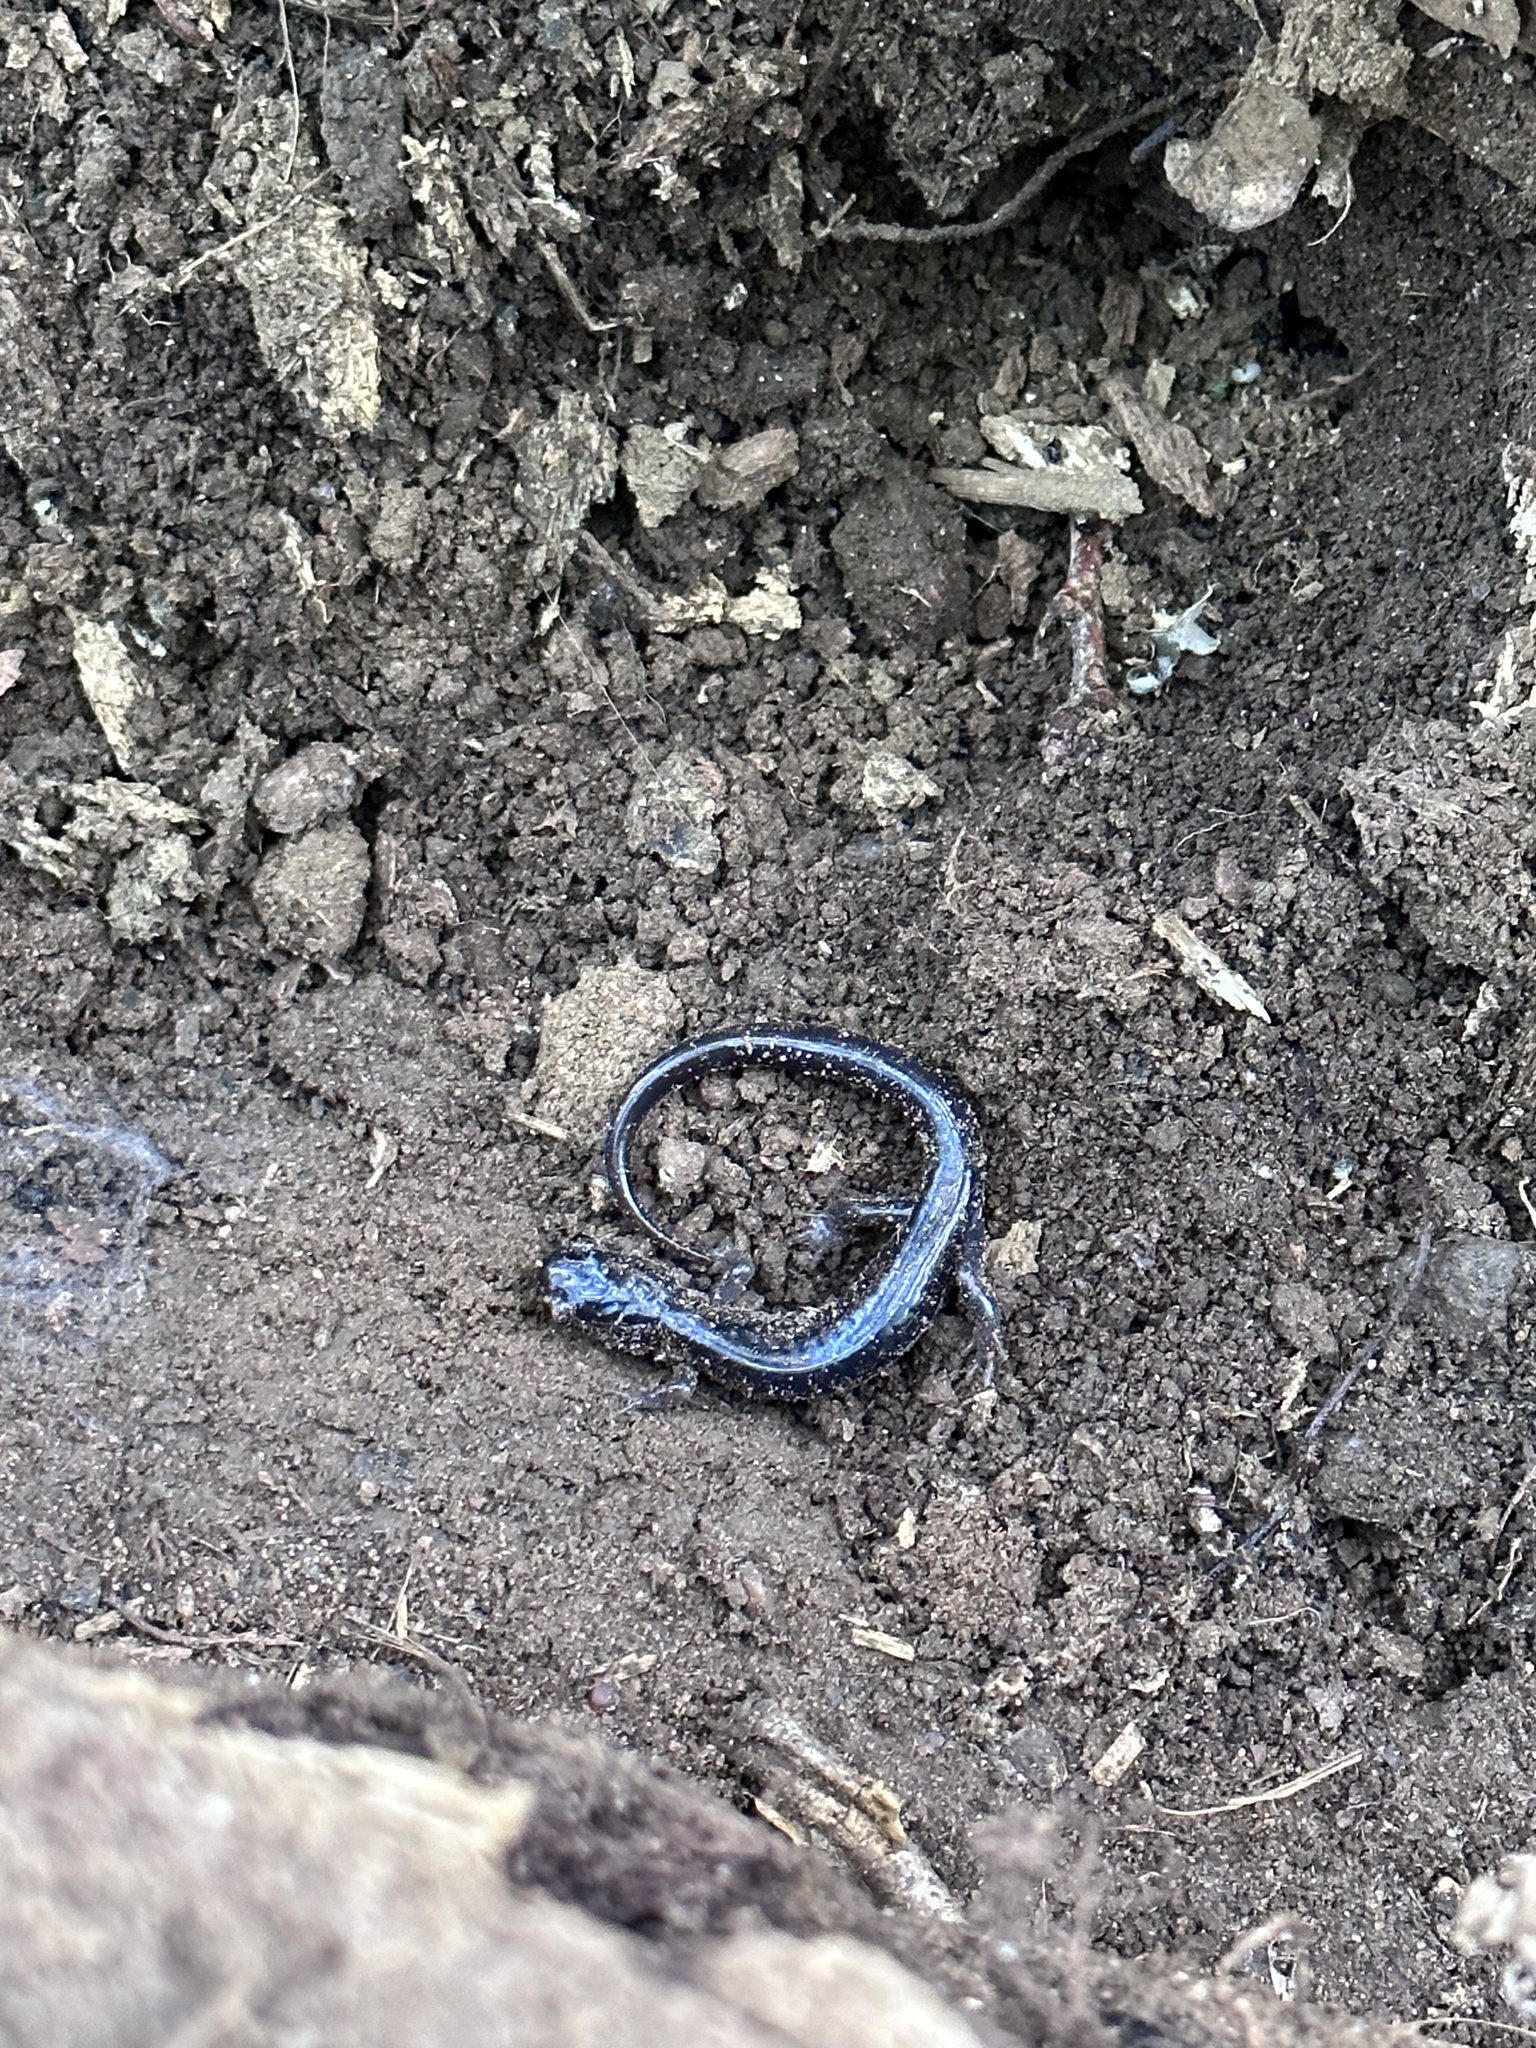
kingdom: Animalia
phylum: Chordata
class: Amphibia
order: Caudata
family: Plethodontidae
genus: Plethodon
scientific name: Plethodon chattahoochee
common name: Chattahoochee slimy salamander
